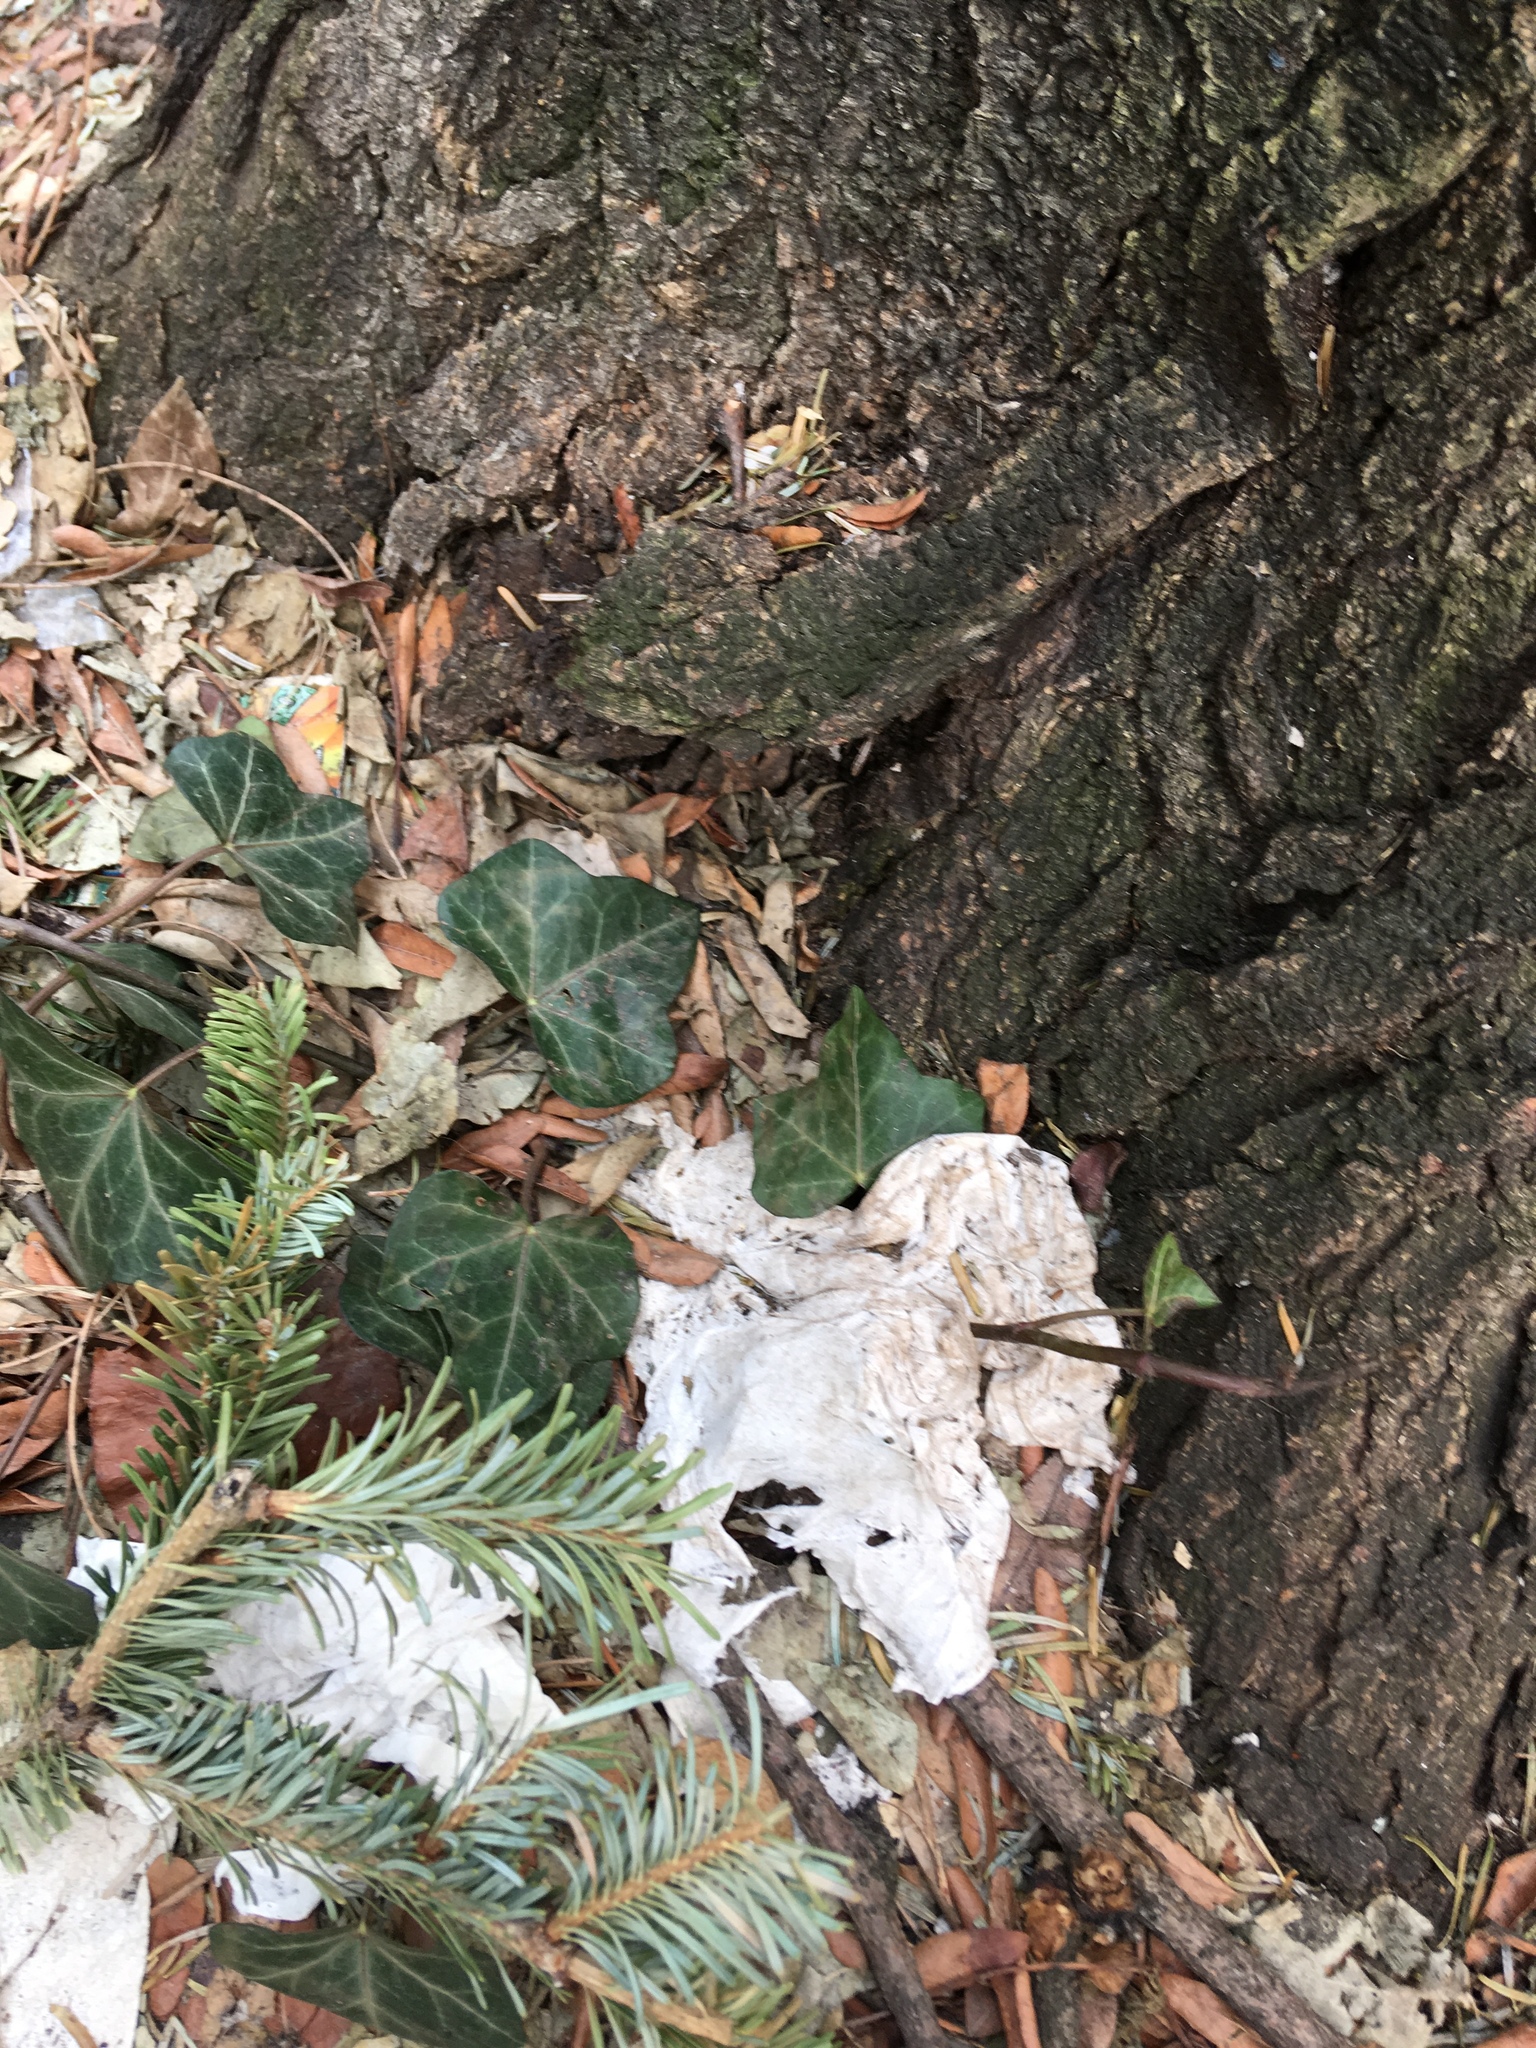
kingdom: Plantae
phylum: Tracheophyta
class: Magnoliopsida
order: Apiales
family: Araliaceae
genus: Hedera
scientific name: Hedera helix
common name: Ivy
